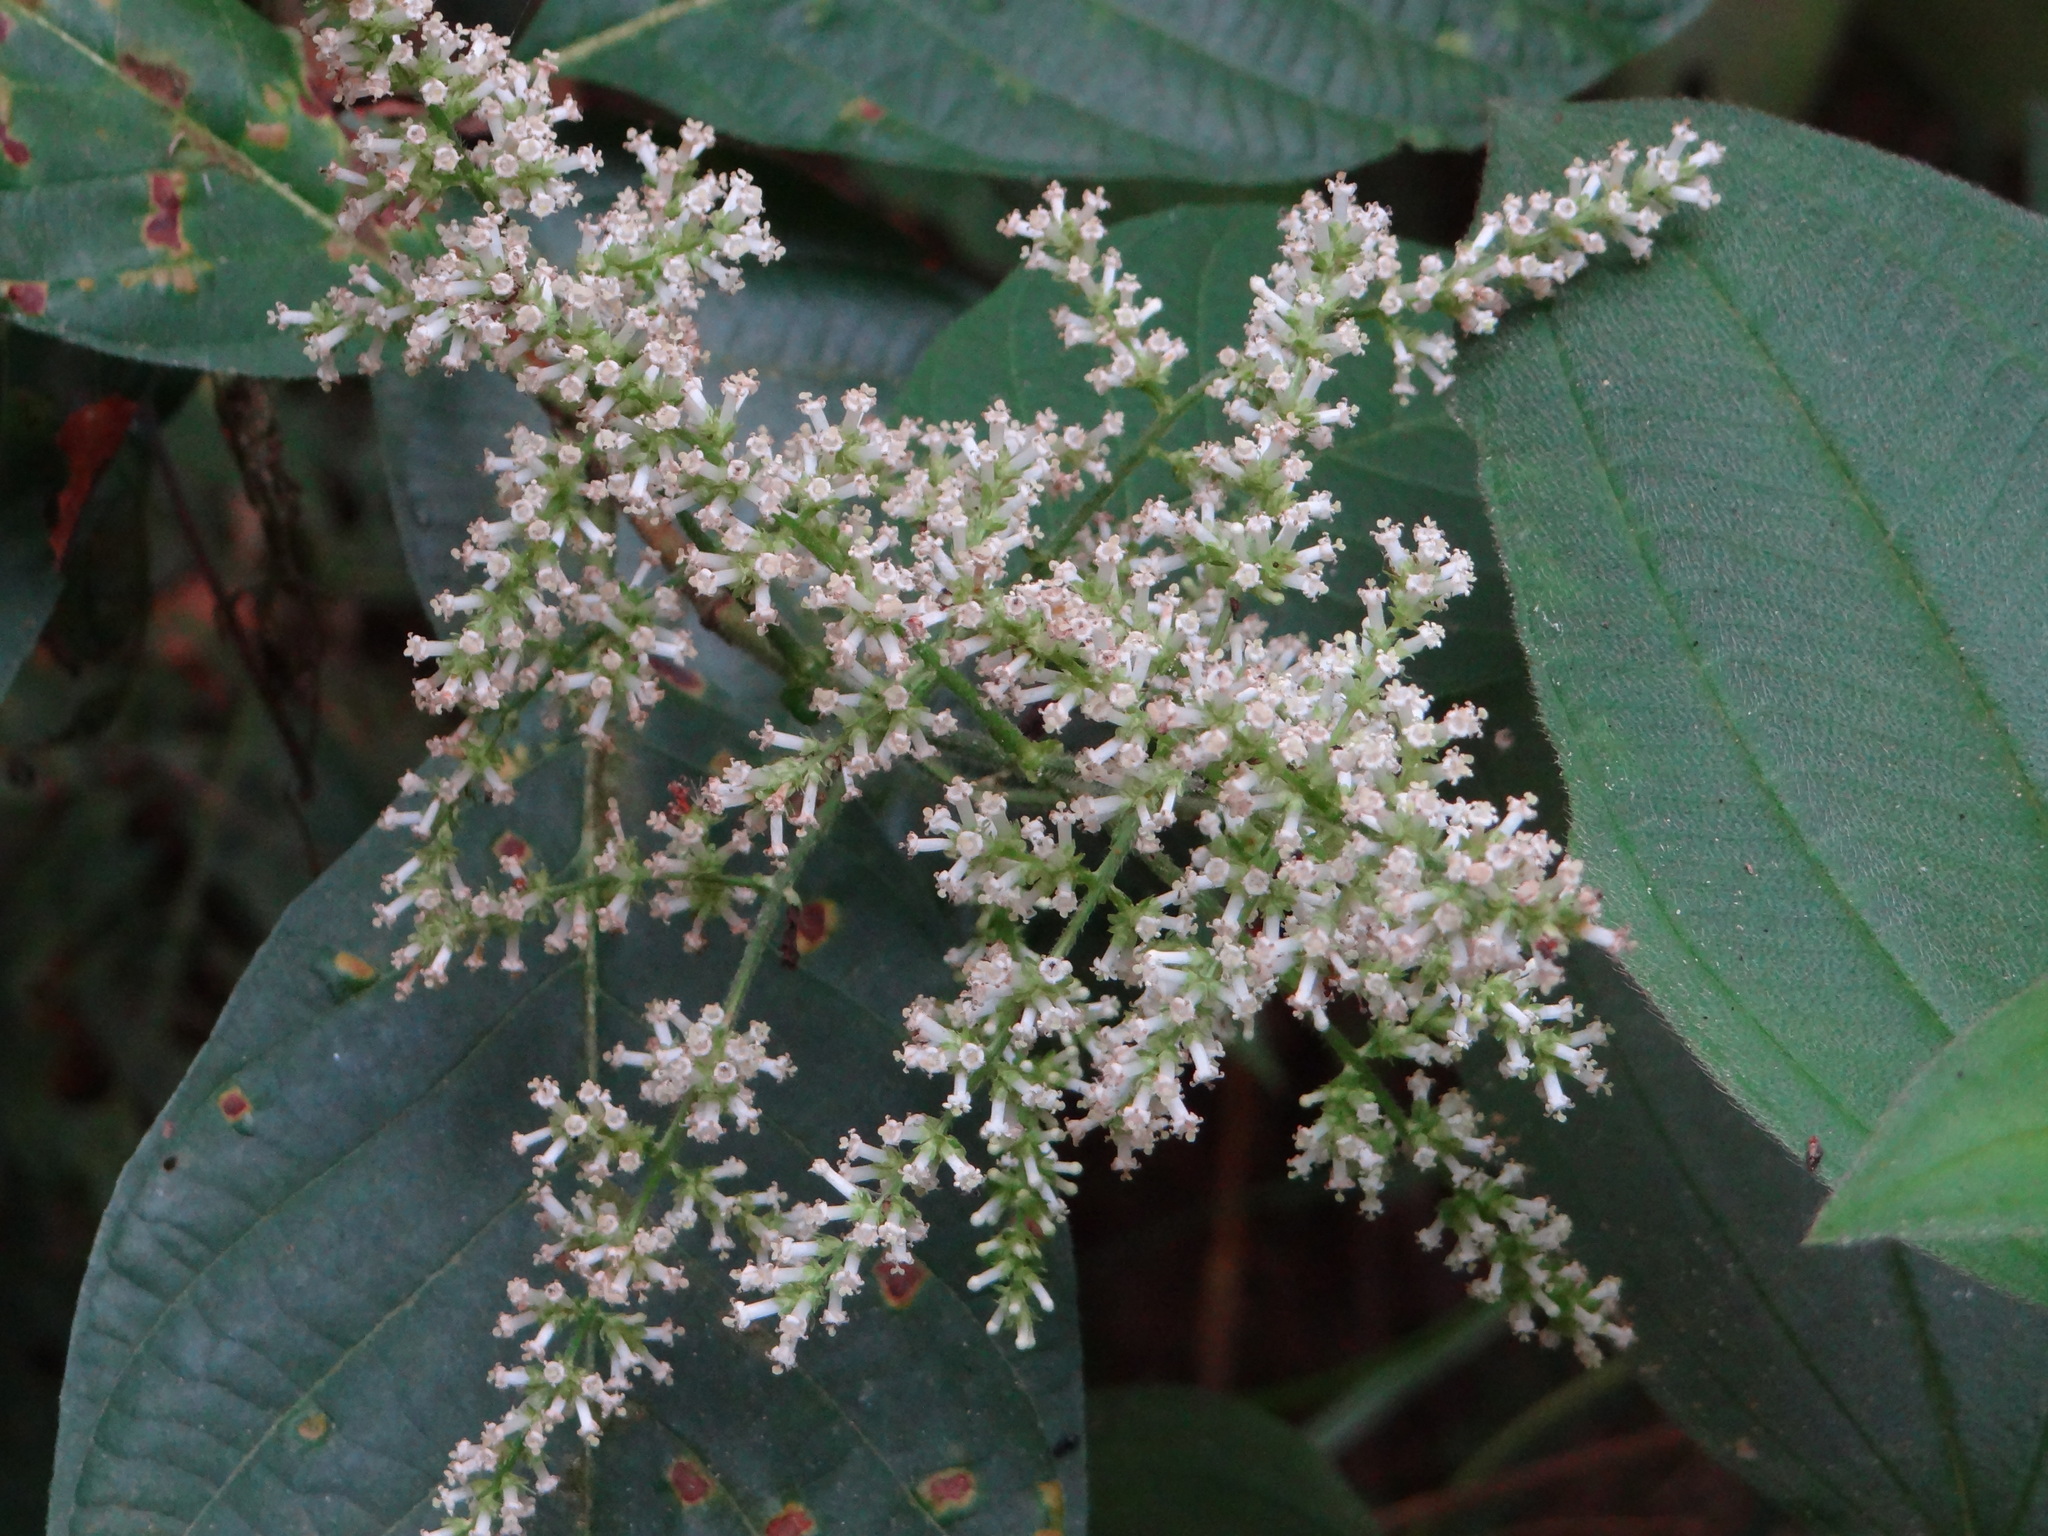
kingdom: Plantae
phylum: Tracheophyta
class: Magnoliopsida
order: Gentianales
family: Rubiaceae
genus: Wendlandia
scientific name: Wendlandia uvariifolia
